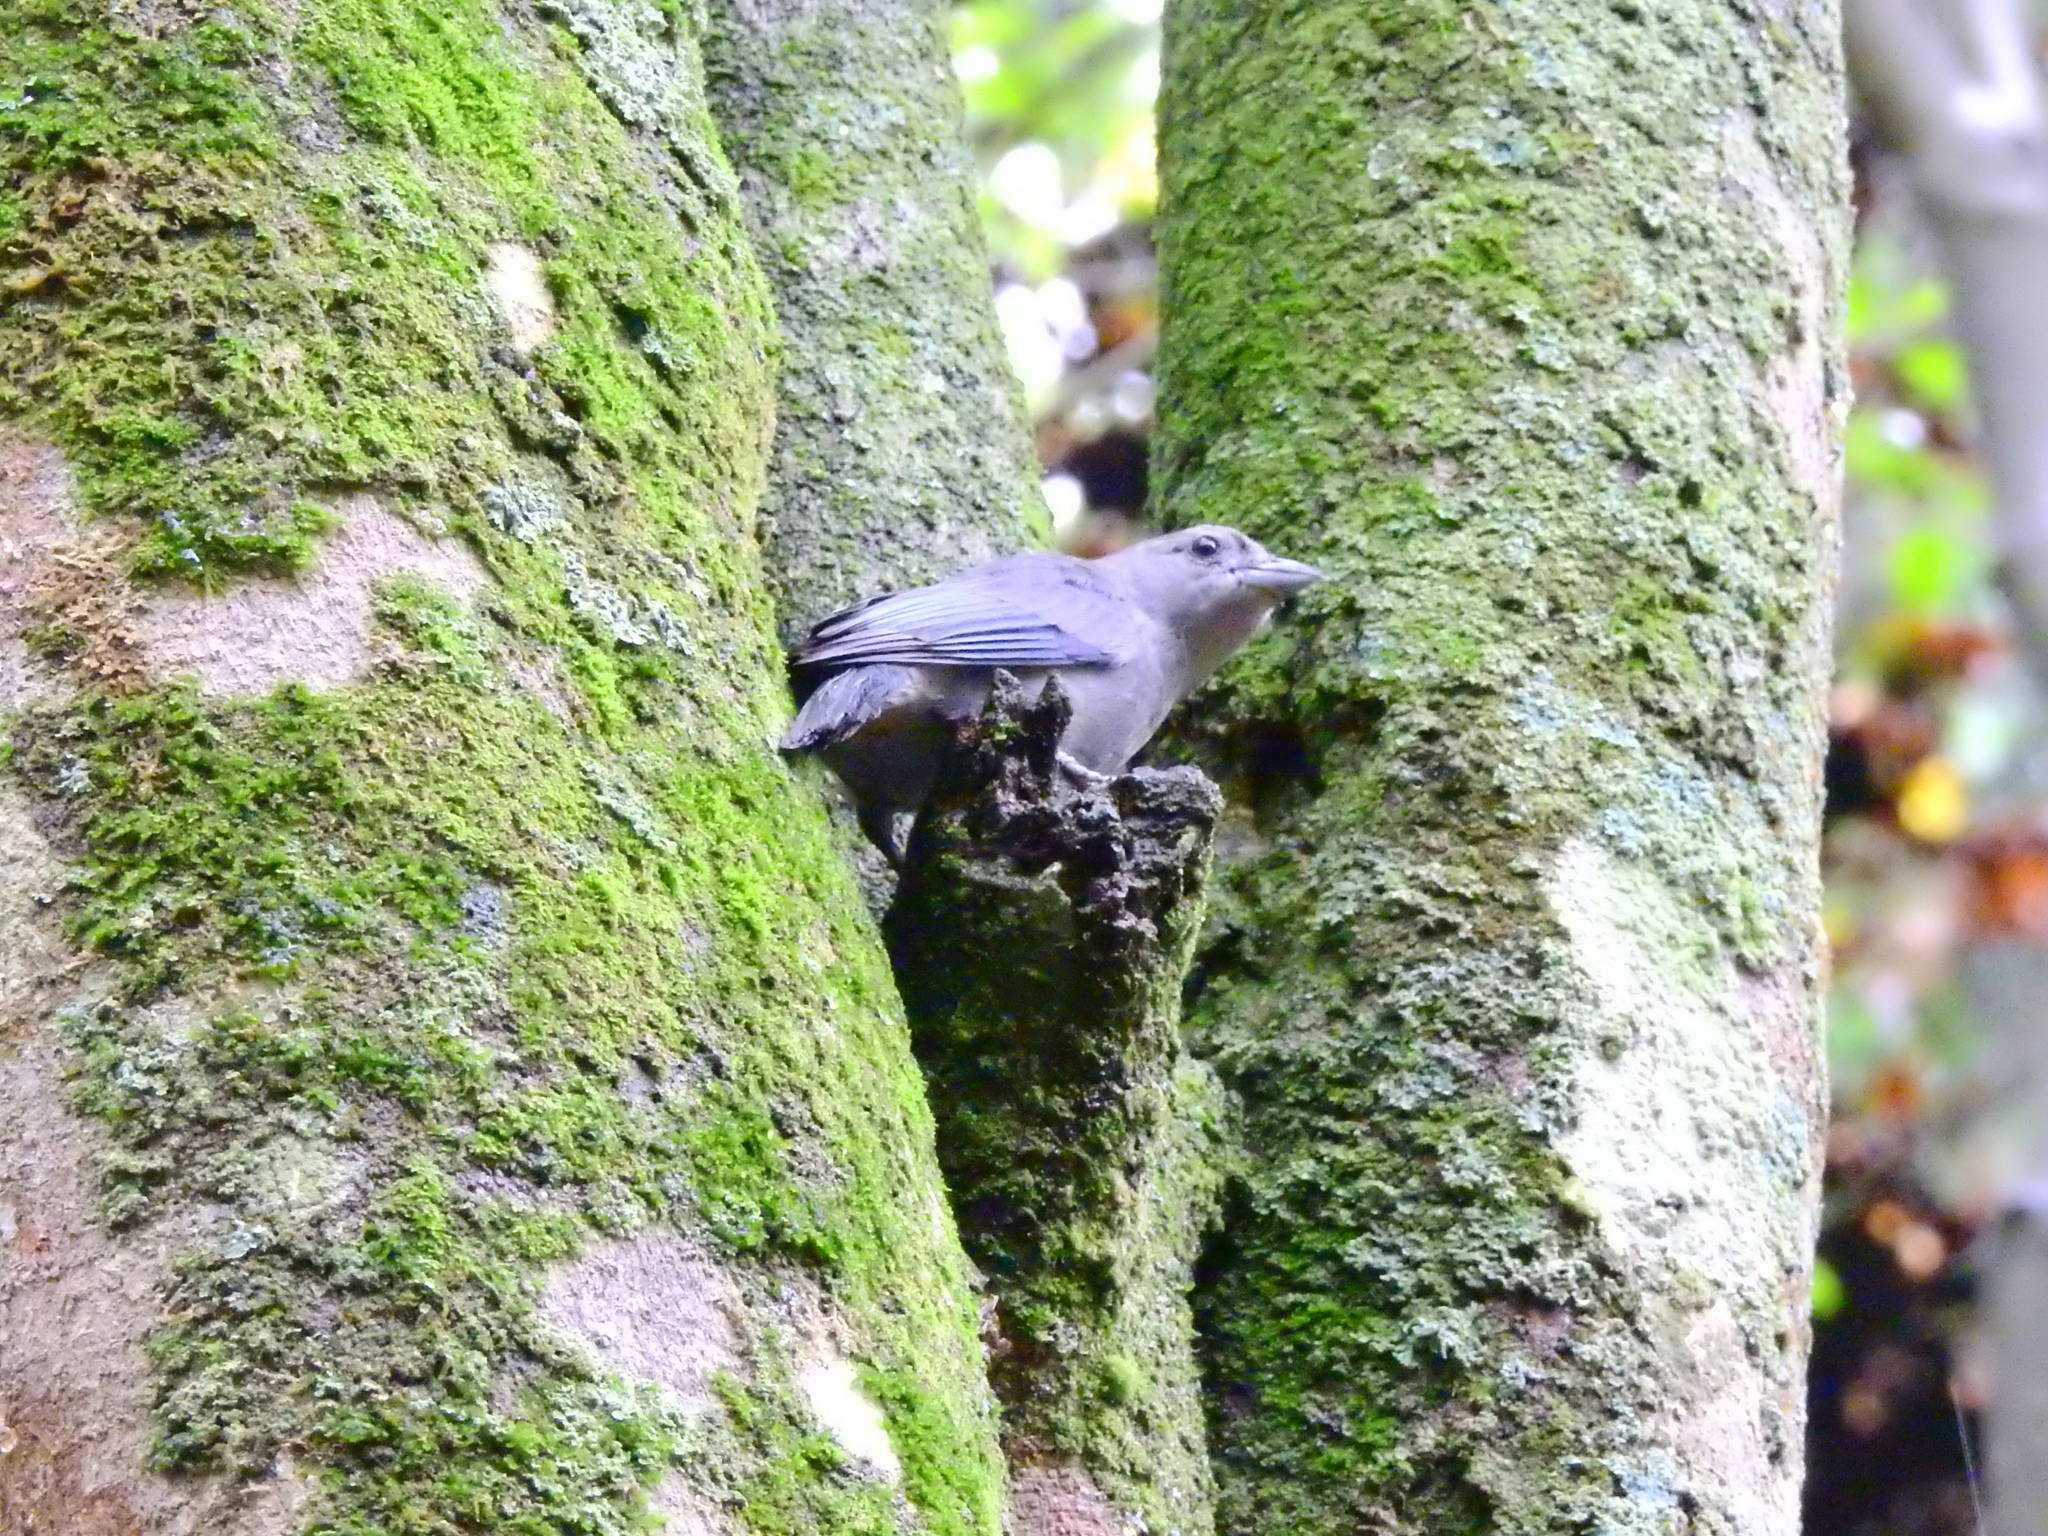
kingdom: Animalia
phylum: Chordata
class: Aves
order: Passeriformes
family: Thraupidae
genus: Thraupis
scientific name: Thraupis sayaca
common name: Sayaca tanager
